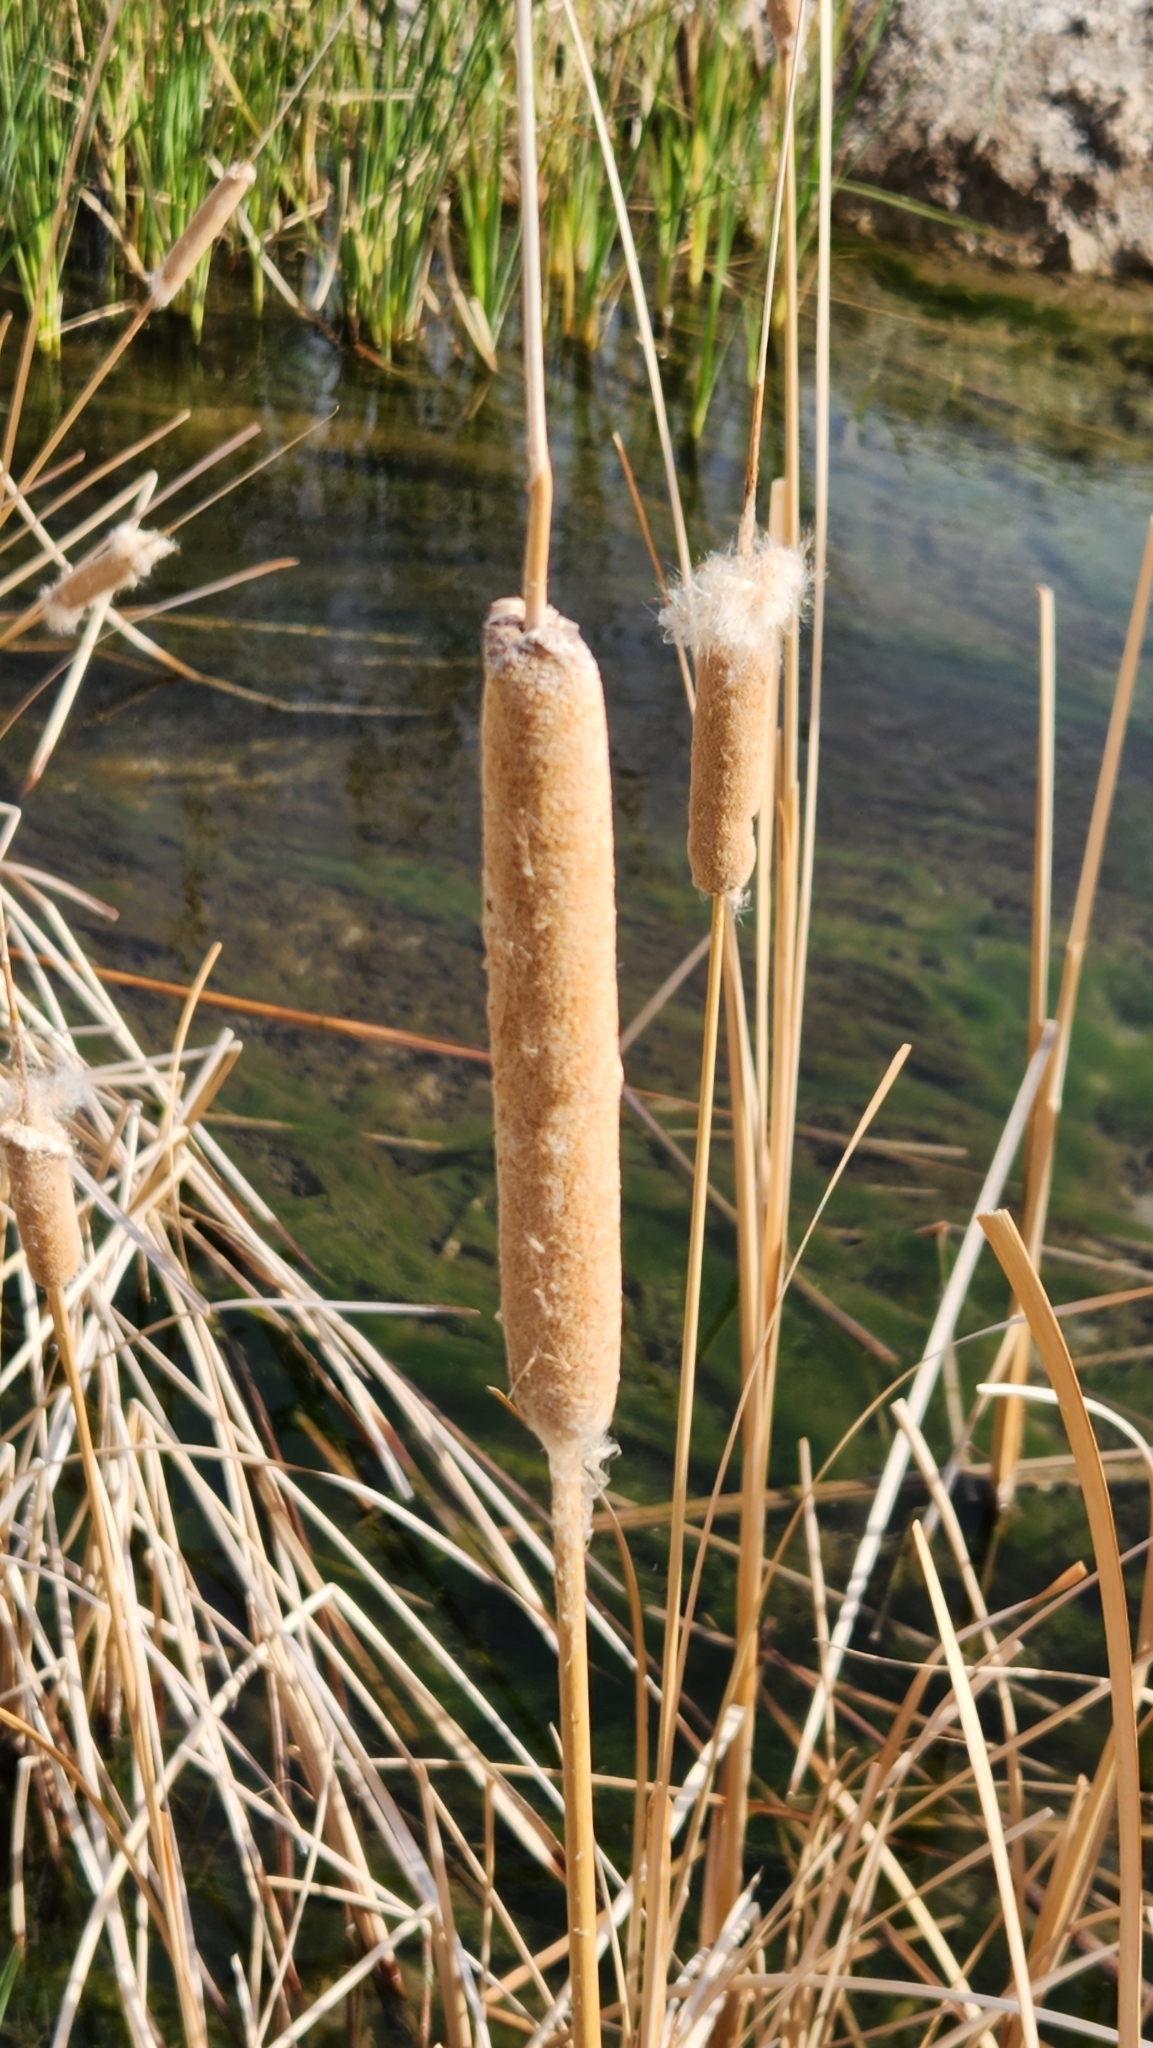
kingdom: Plantae
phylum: Tracheophyta
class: Liliopsida
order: Poales
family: Typhaceae
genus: Typha
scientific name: Typha domingensis
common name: Southern cattail
